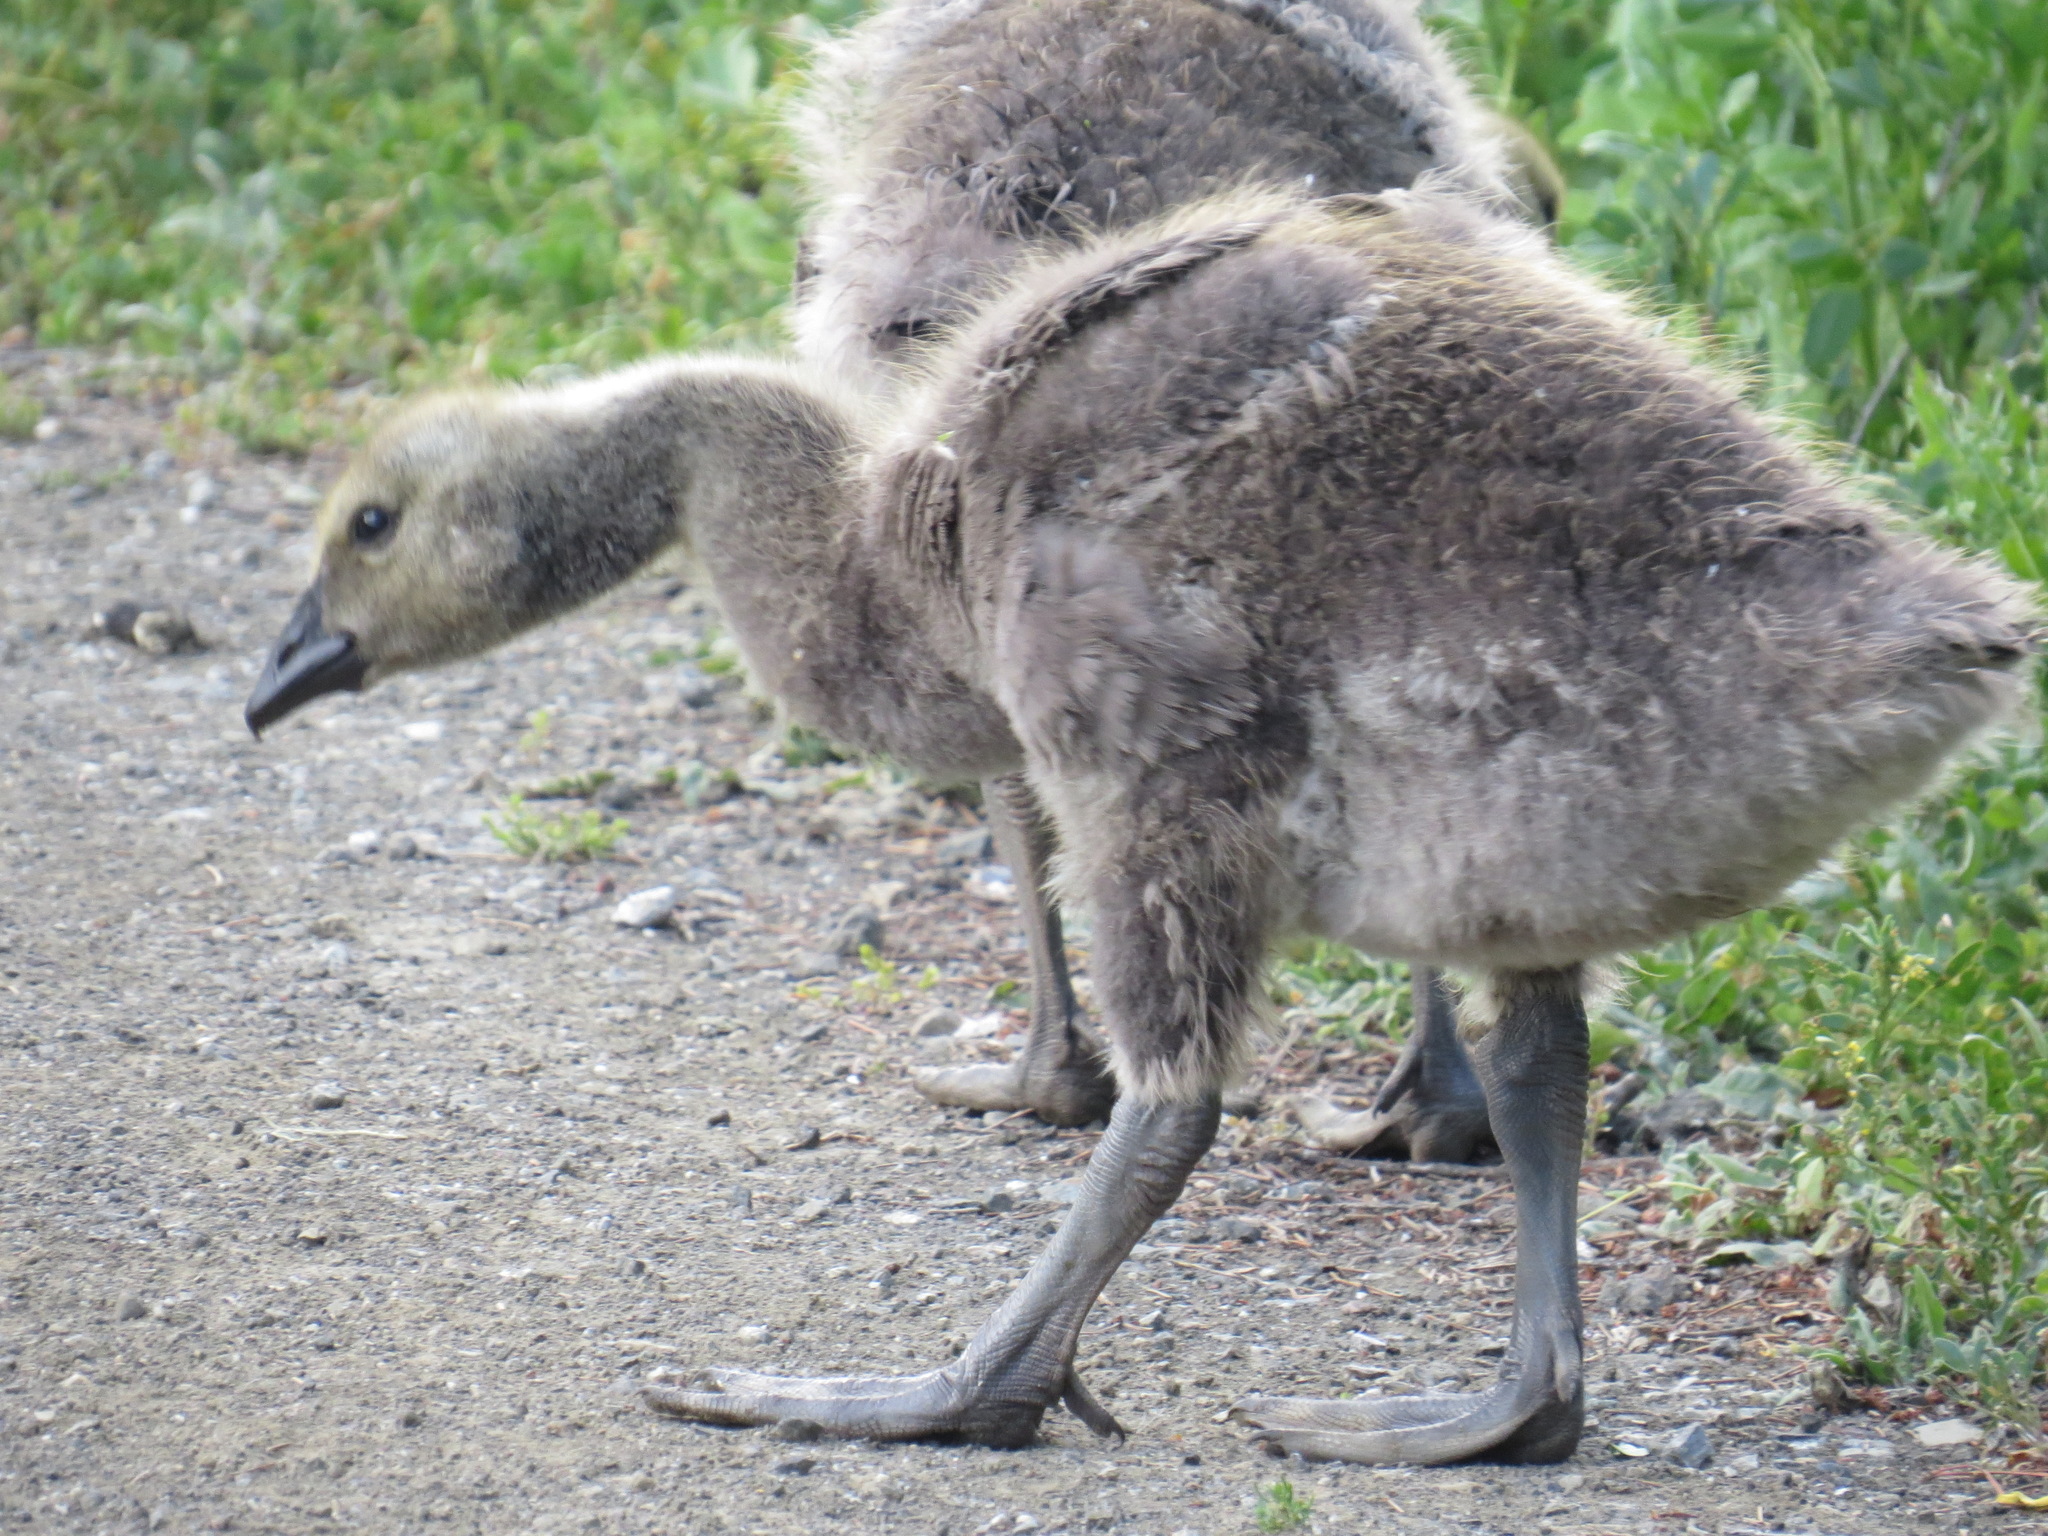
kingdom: Animalia
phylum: Chordata
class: Aves
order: Anseriformes
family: Anatidae
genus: Branta
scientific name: Branta canadensis
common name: Canada goose
